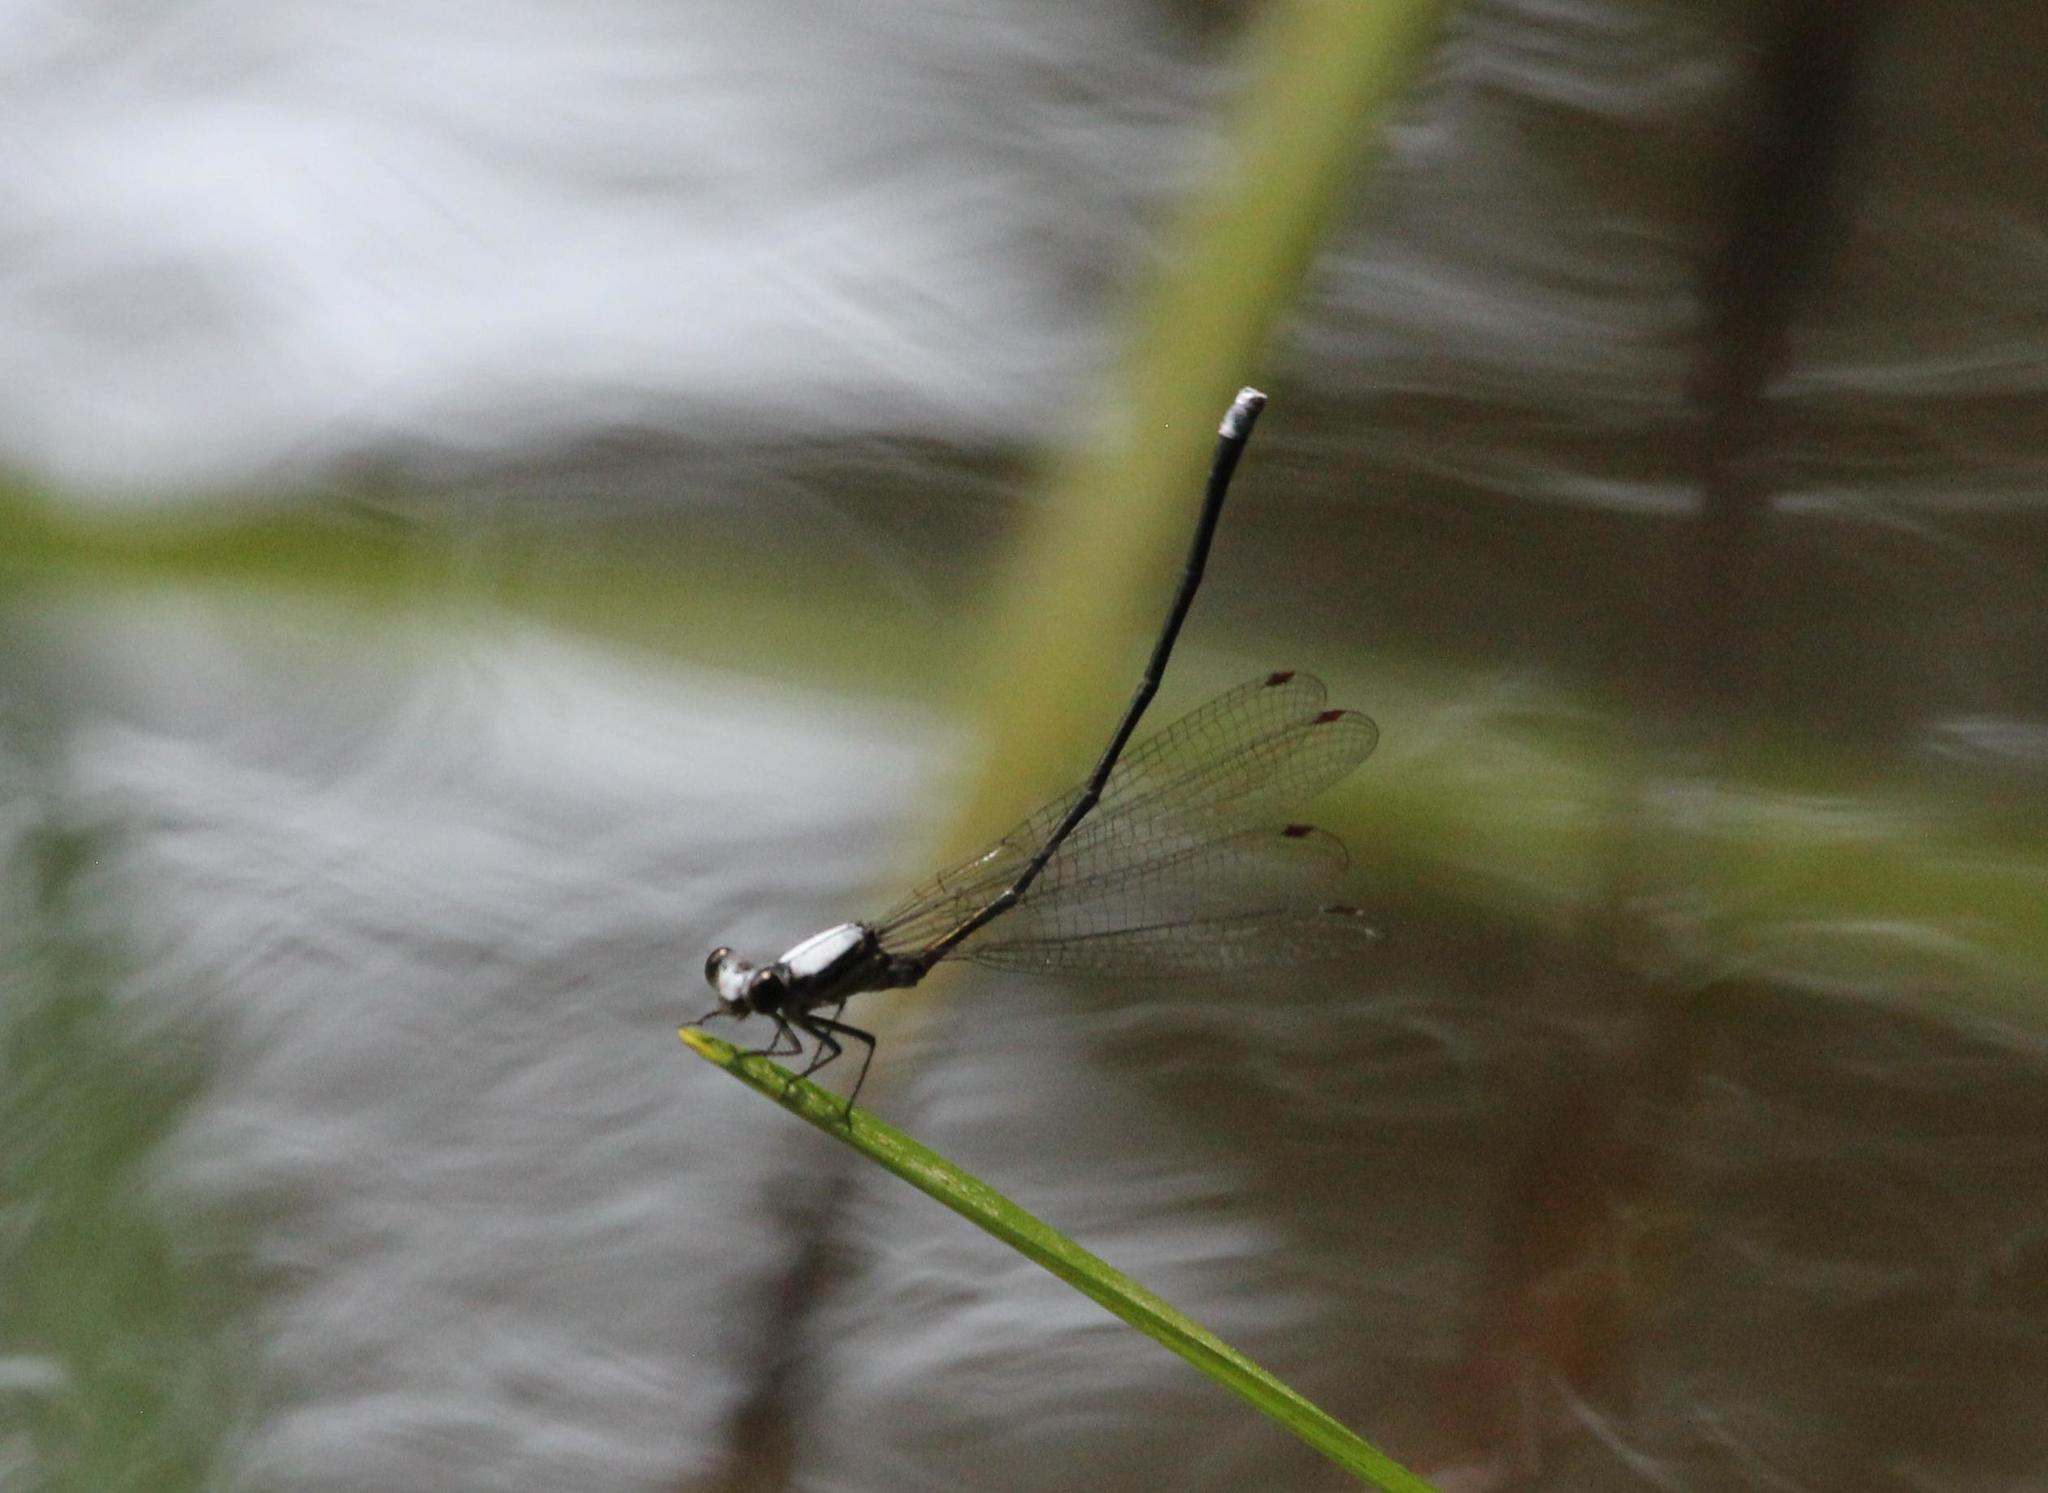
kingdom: Animalia
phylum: Arthropoda
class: Insecta
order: Odonata
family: Coenagrionidae
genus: Argia
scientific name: Argia moesta
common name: Powdered dancer
